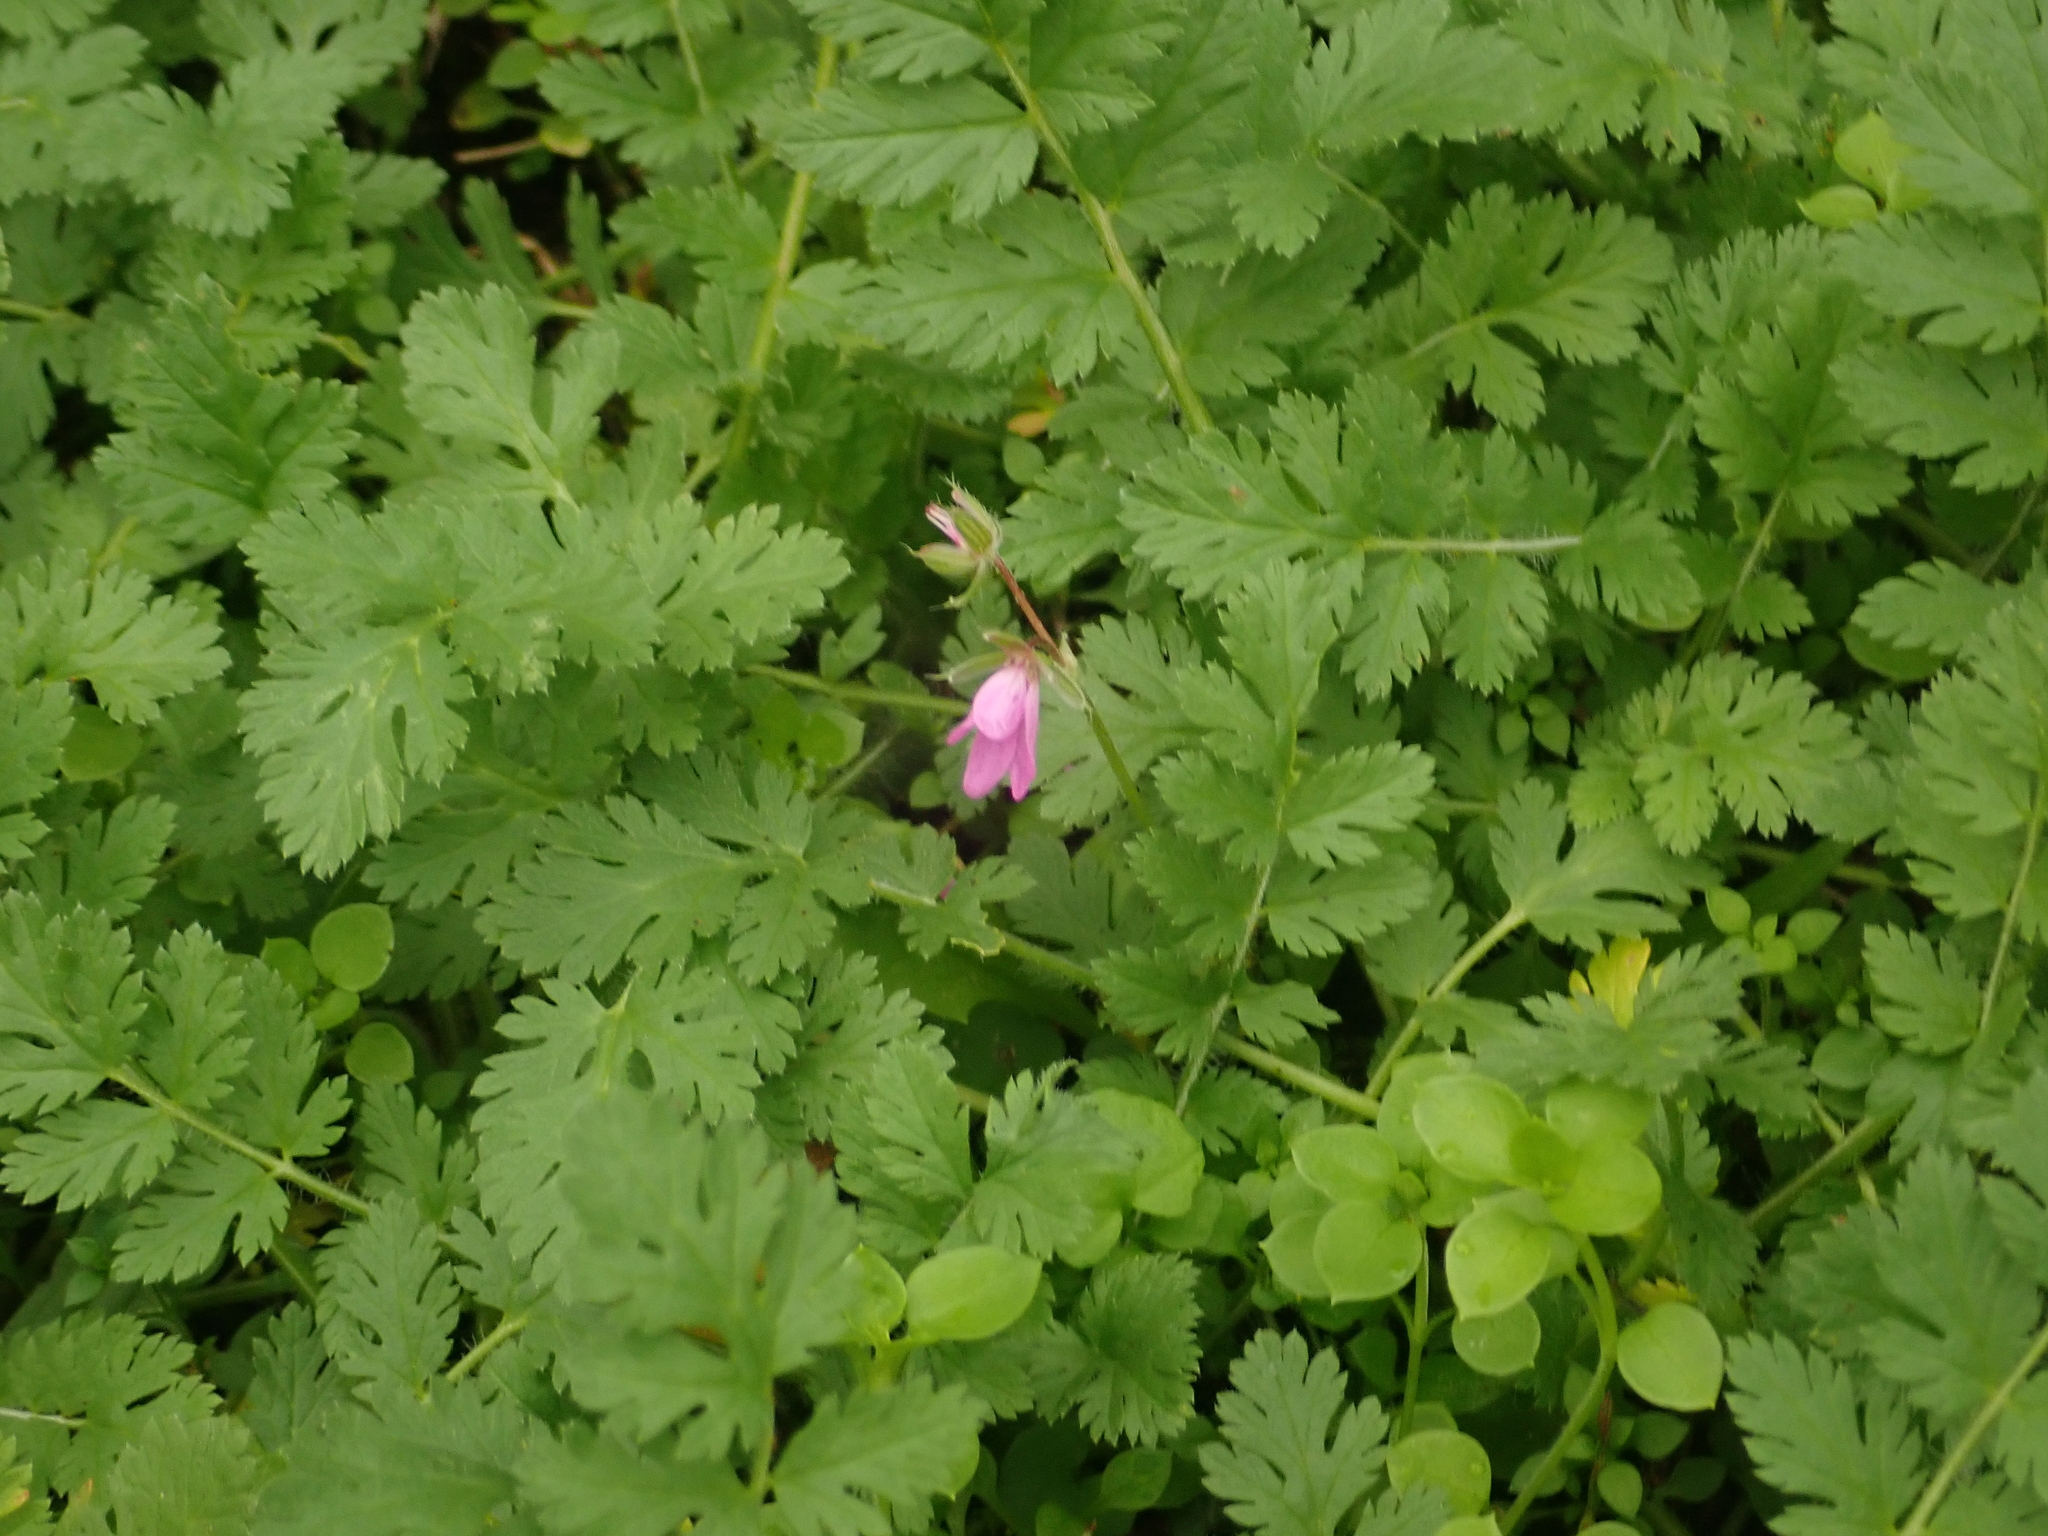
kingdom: Plantae
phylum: Tracheophyta
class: Magnoliopsida
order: Geraniales
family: Geraniaceae
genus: Erodium
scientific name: Erodium cicutarium
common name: Common stork's-bill
